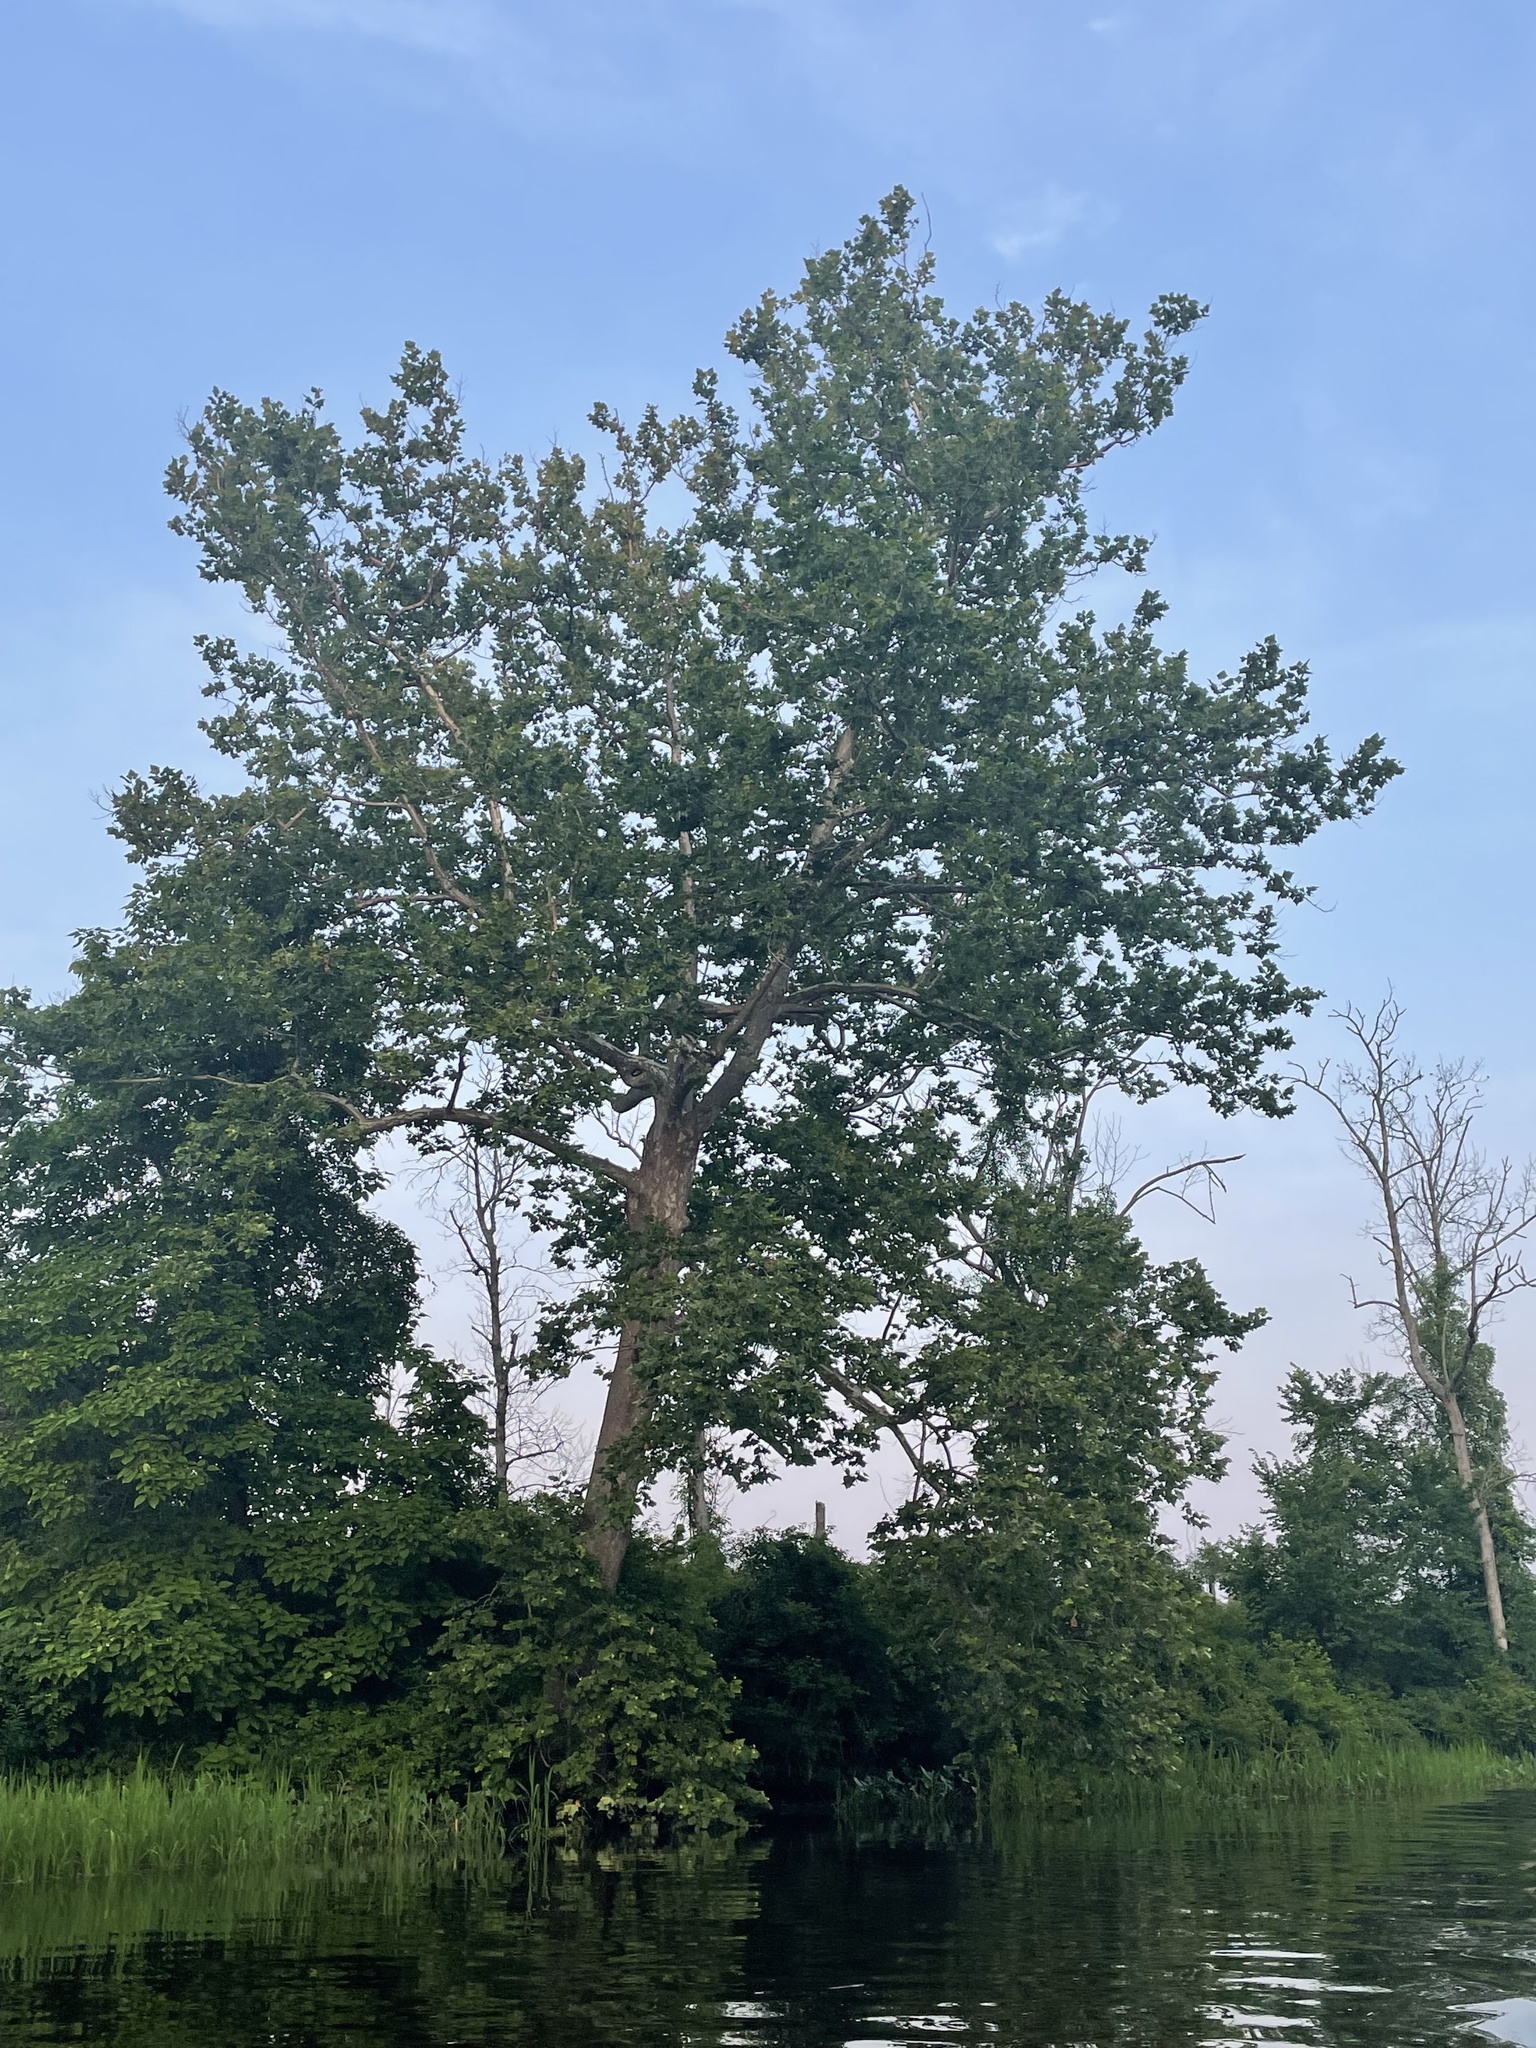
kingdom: Plantae
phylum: Tracheophyta
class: Magnoliopsida
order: Proteales
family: Platanaceae
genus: Platanus
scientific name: Platanus occidentalis
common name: American sycamore
